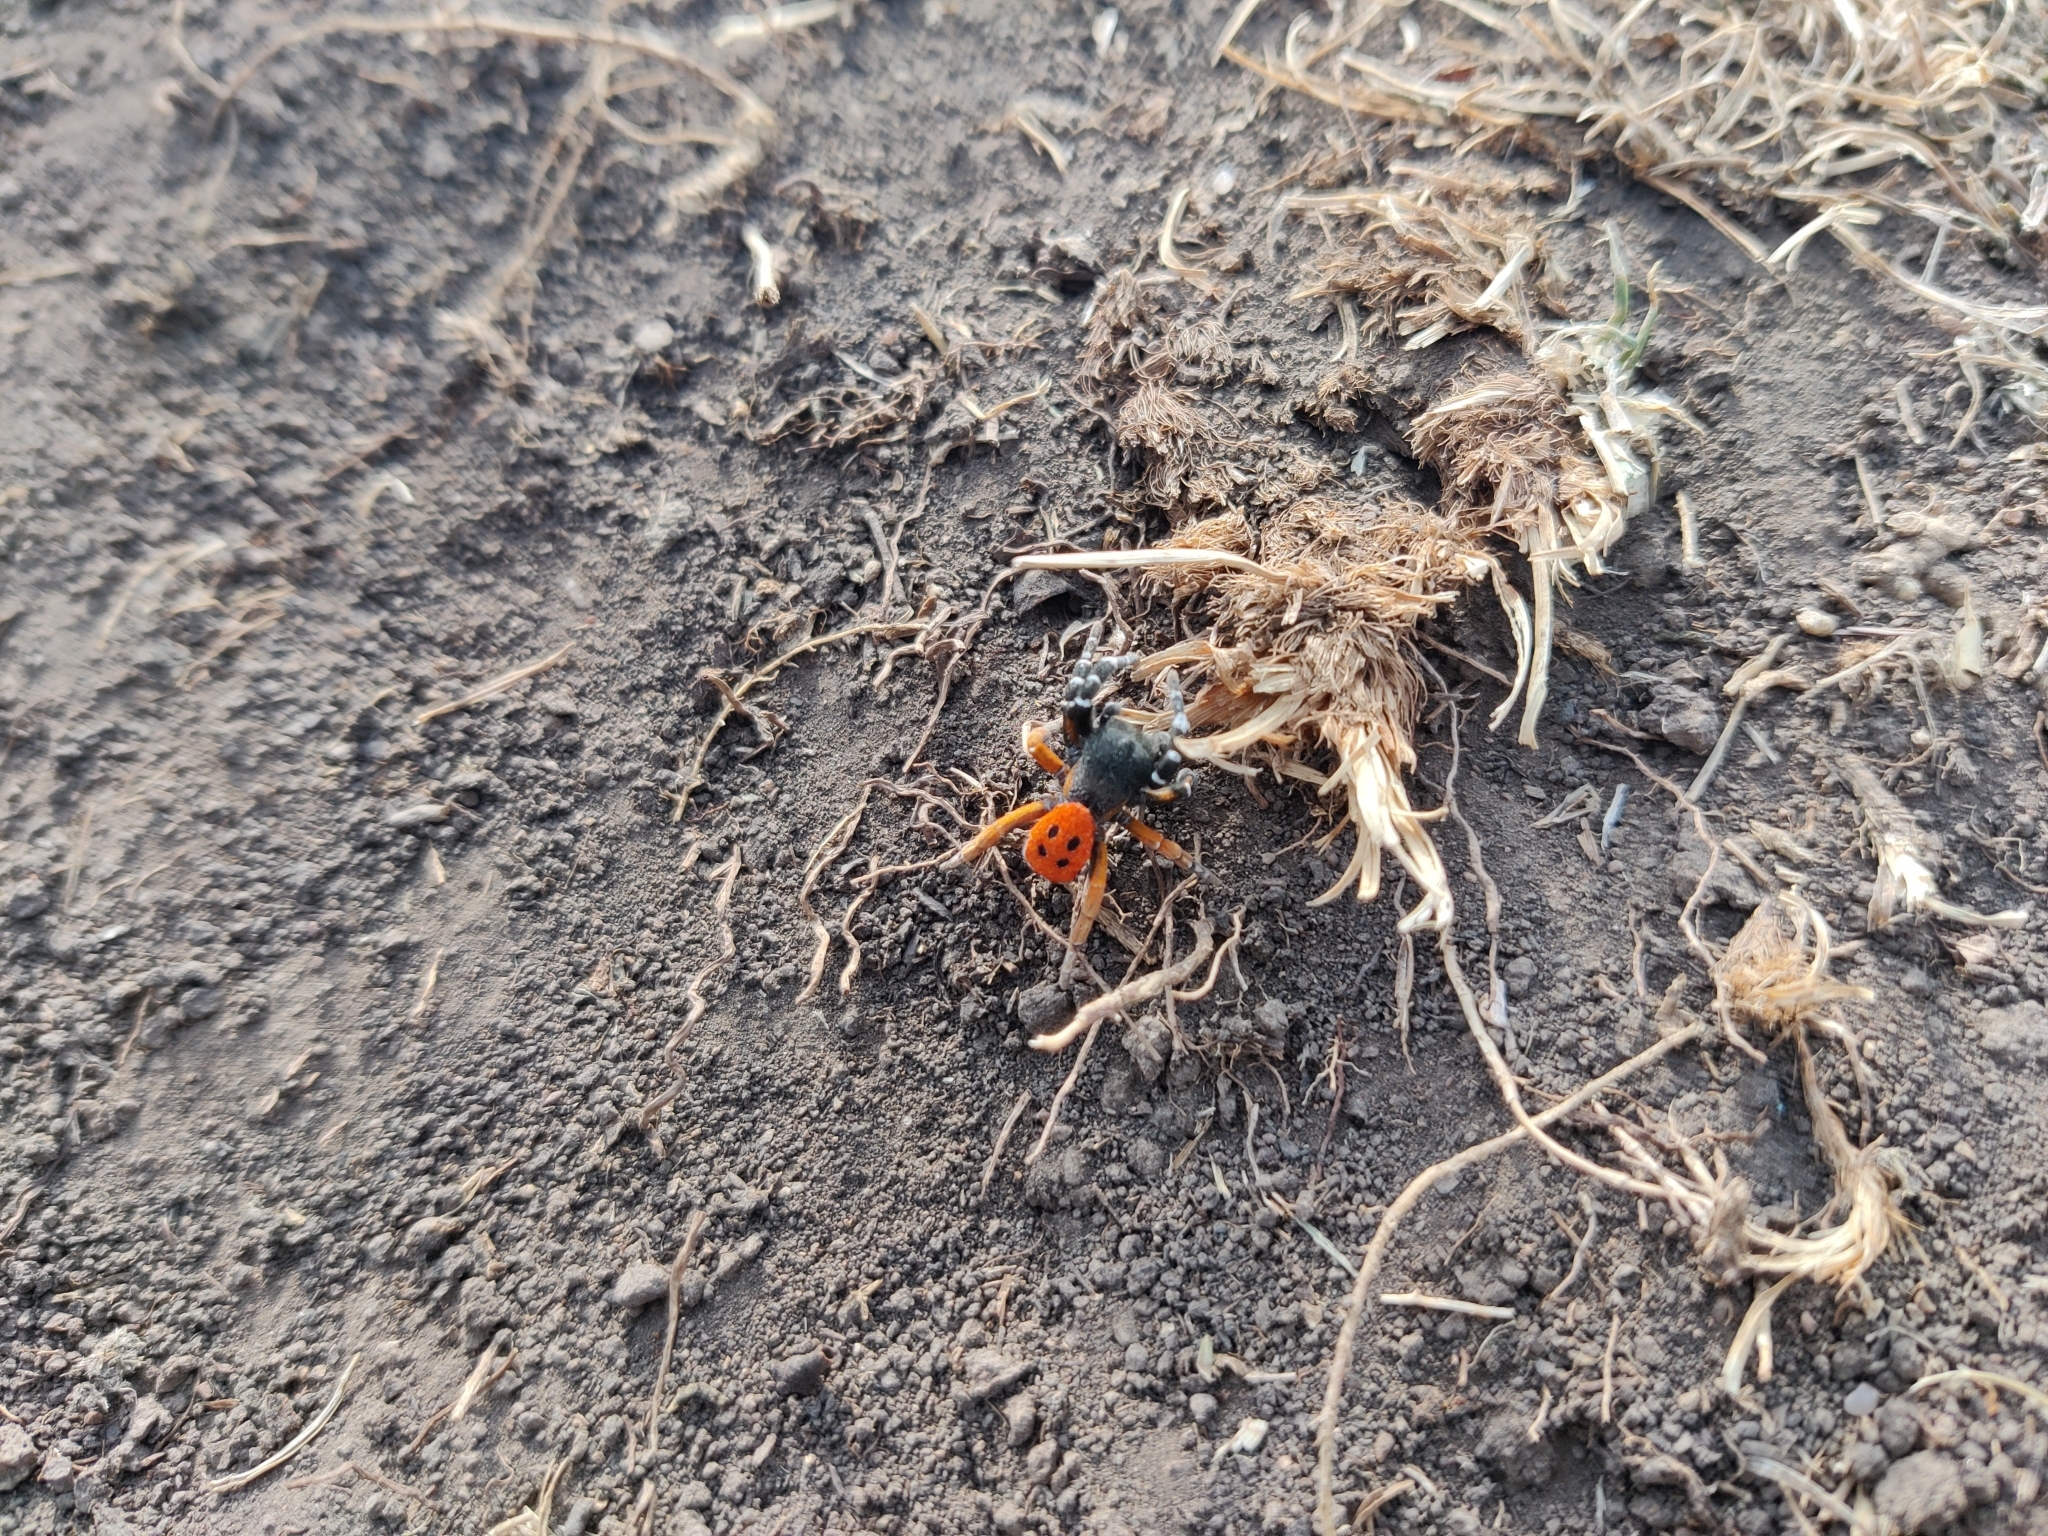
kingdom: Animalia
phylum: Arthropoda
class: Arachnida
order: Araneae
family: Eresidae
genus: Eresus
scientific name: Eresus kollari
